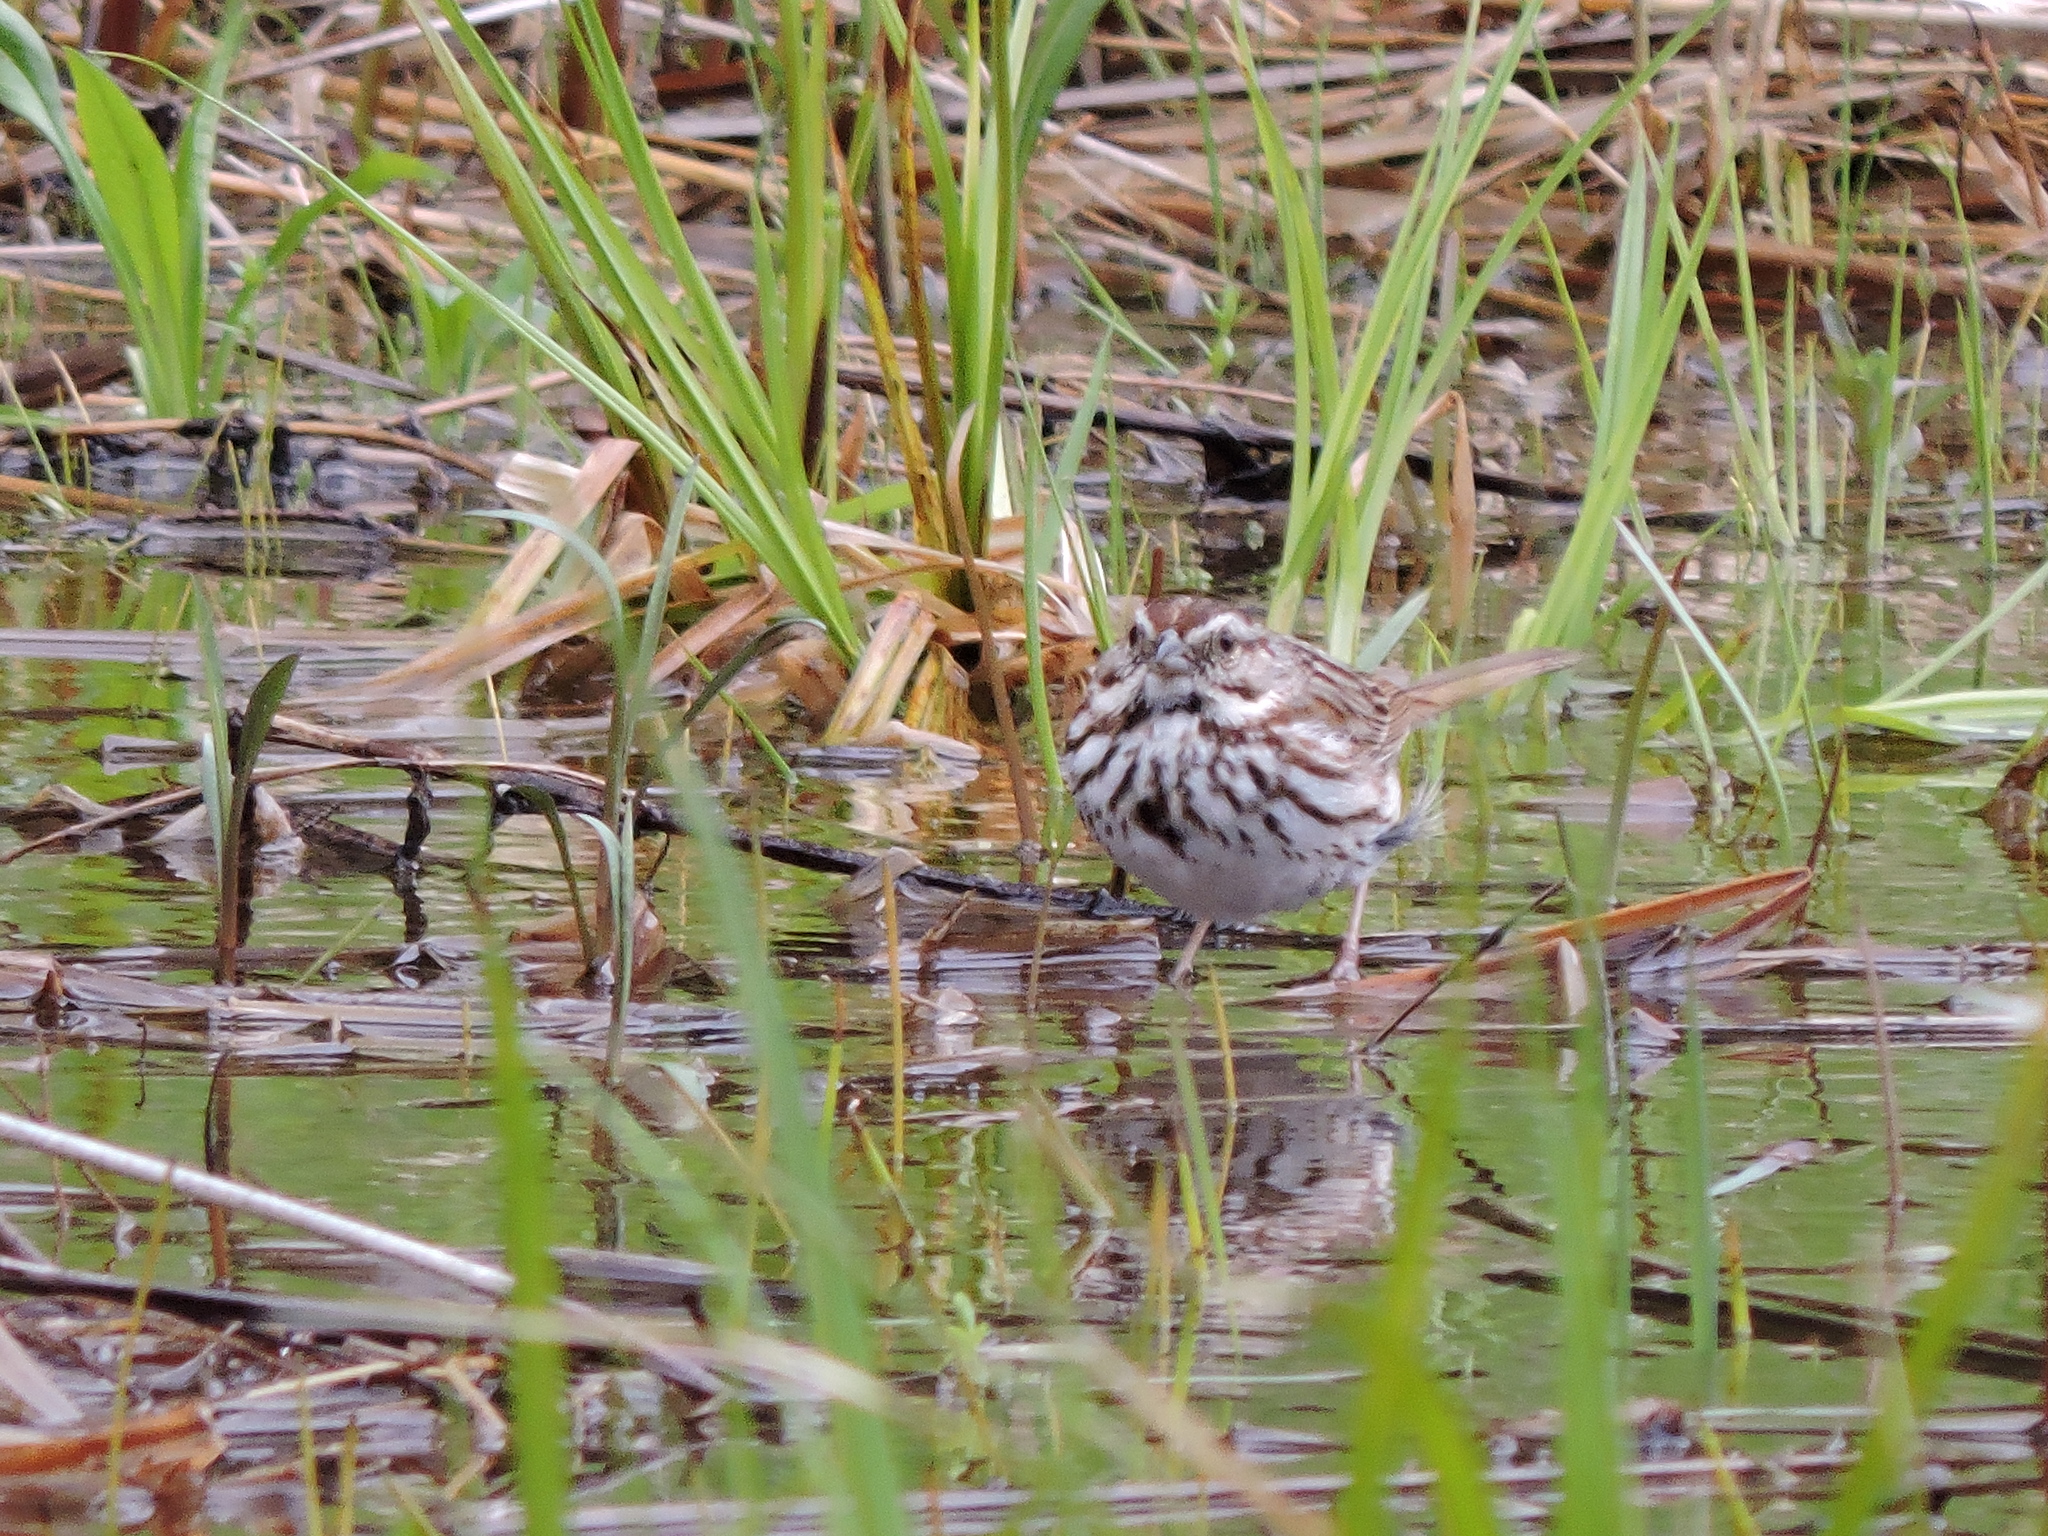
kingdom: Animalia
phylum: Chordata
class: Aves
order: Passeriformes
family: Passerellidae
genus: Melospiza
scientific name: Melospiza melodia
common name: Song sparrow
